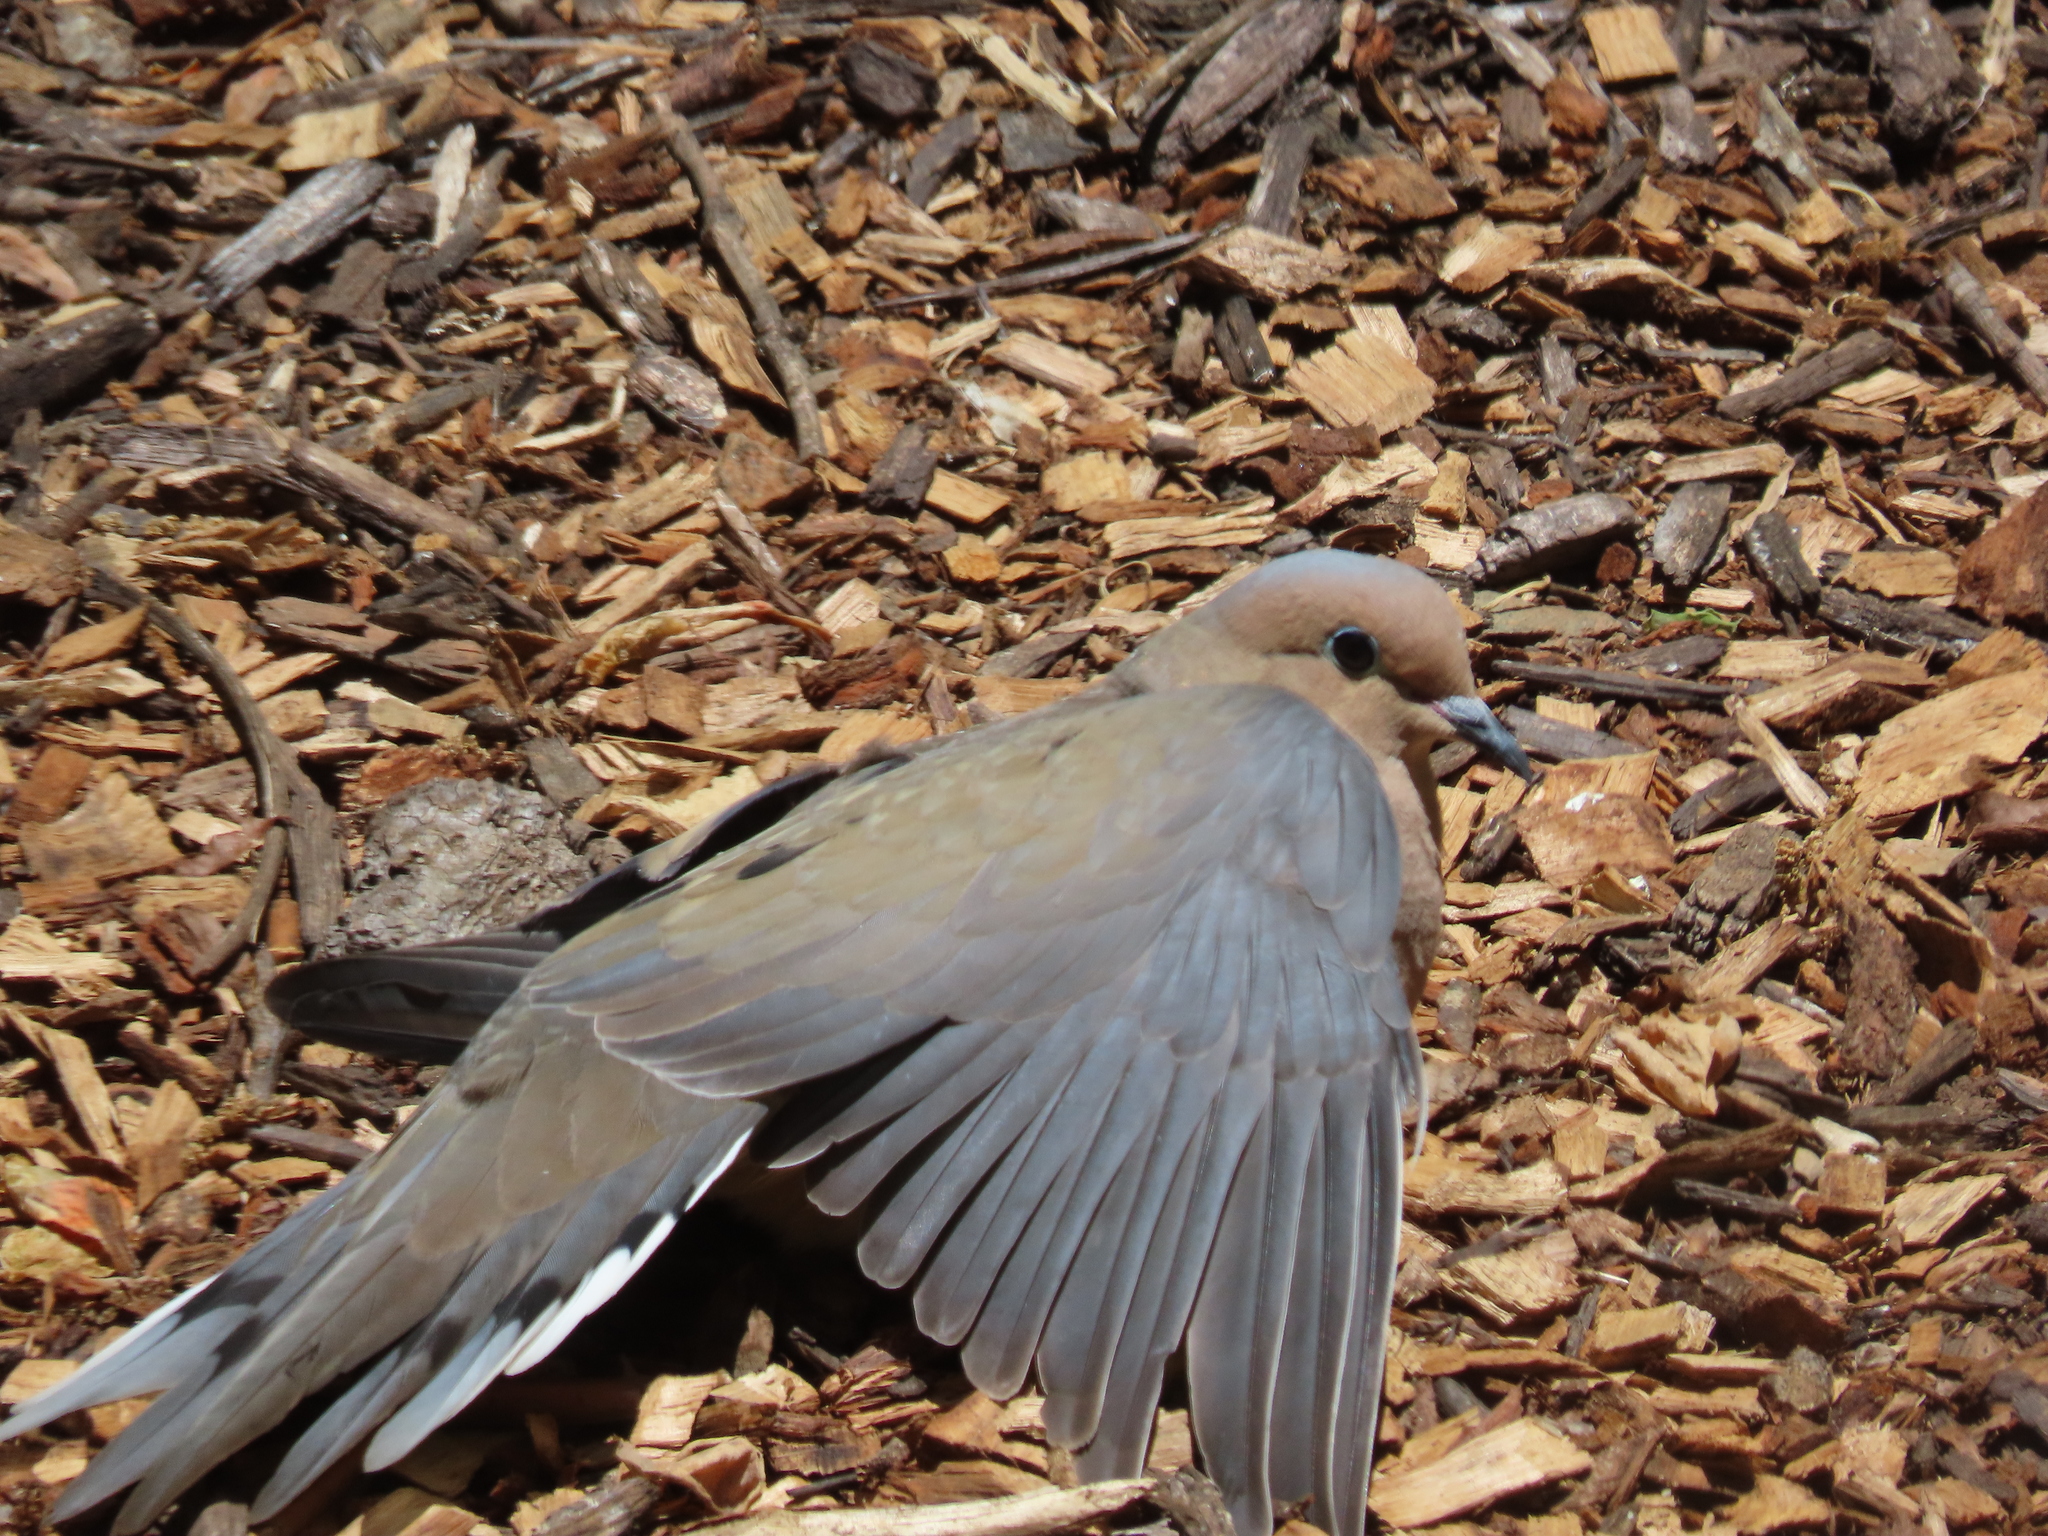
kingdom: Animalia
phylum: Chordata
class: Aves
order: Columbiformes
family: Columbidae
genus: Zenaida
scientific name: Zenaida macroura
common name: Mourning dove
